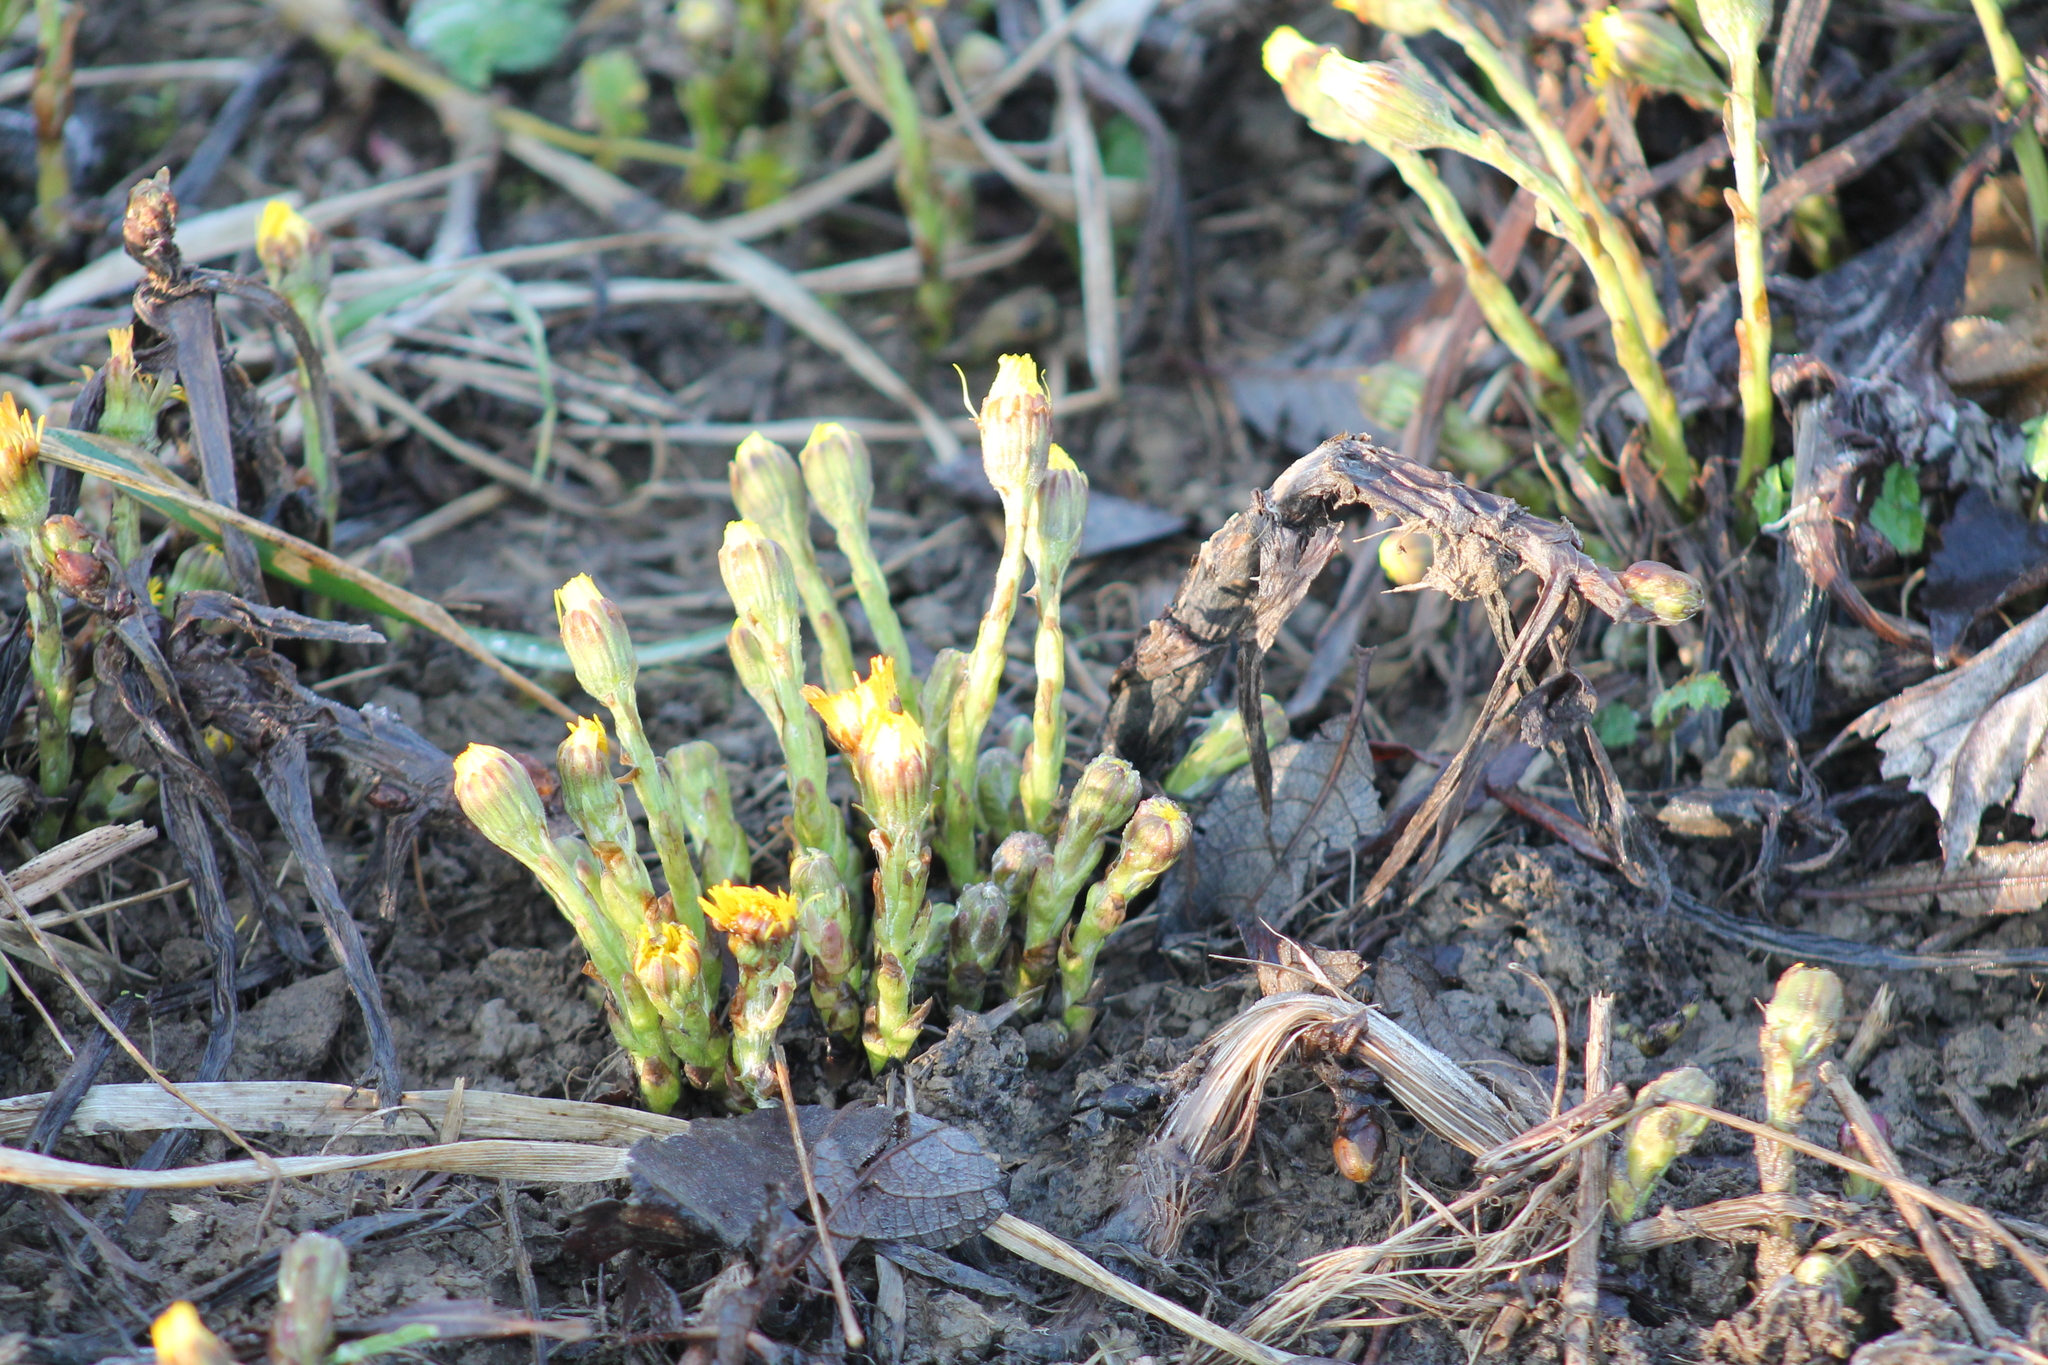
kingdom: Plantae
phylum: Tracheophyta
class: Magnoliopsida
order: Asterales
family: Asteraceae
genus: Tussilago
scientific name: Tussilago farfara
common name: Coltsfoot
